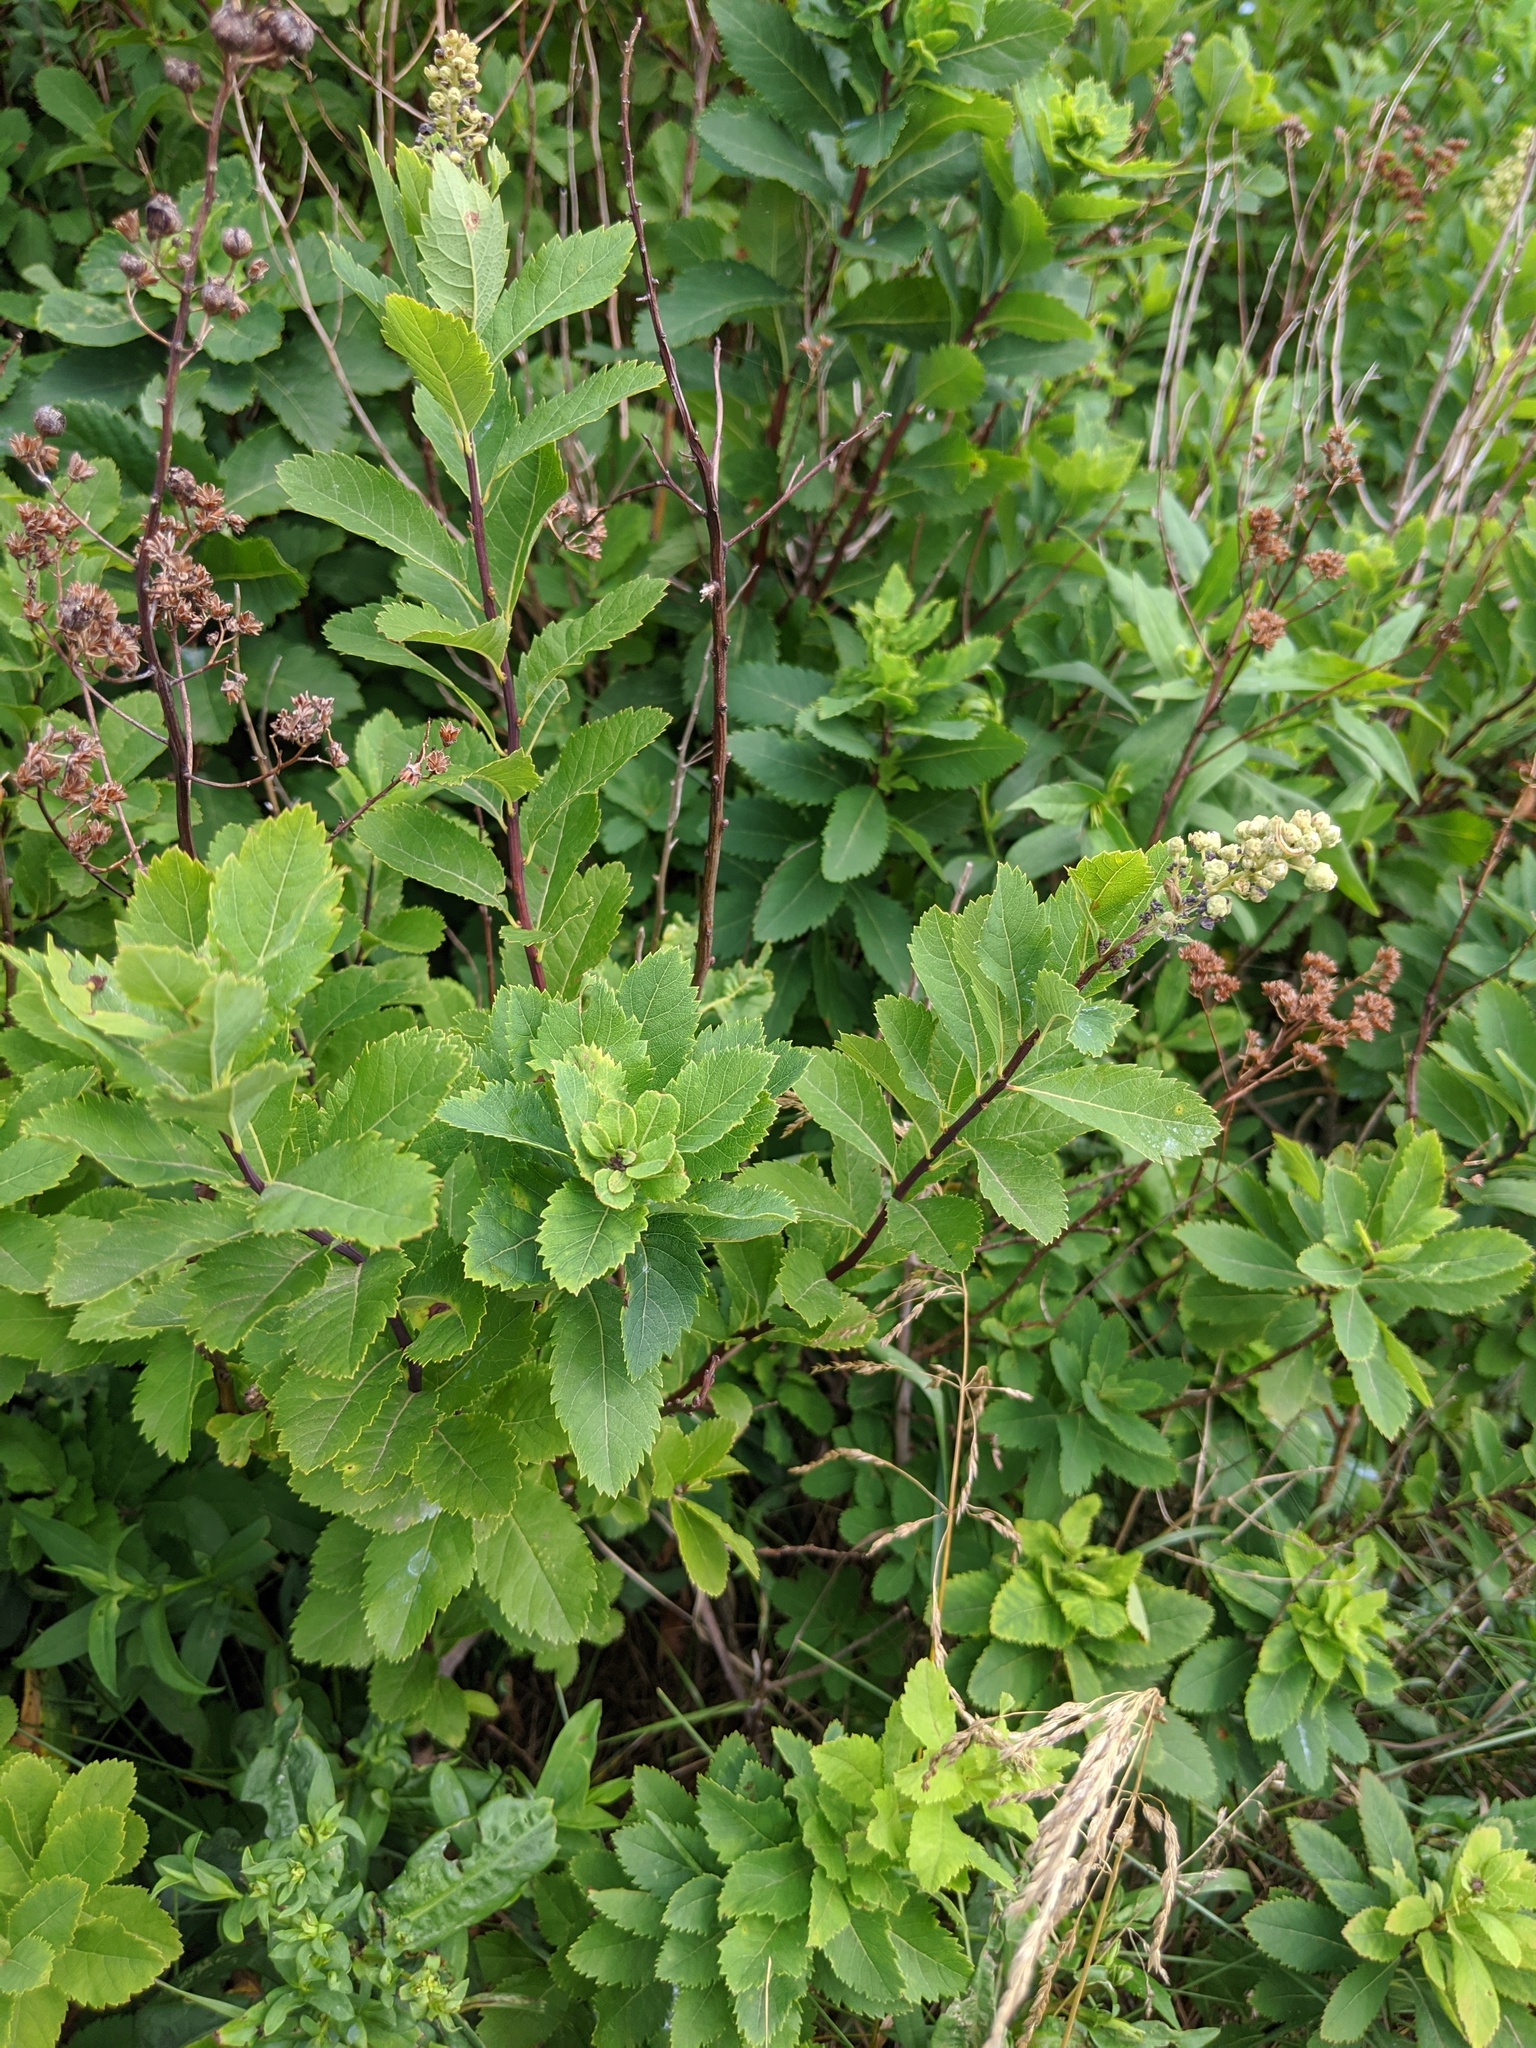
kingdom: Plantae
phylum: Tracheophyta
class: Magnoliopsida
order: Rosales
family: Rosaceae
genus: Spiraea
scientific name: Spiraea alba
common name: Pale bridewort
